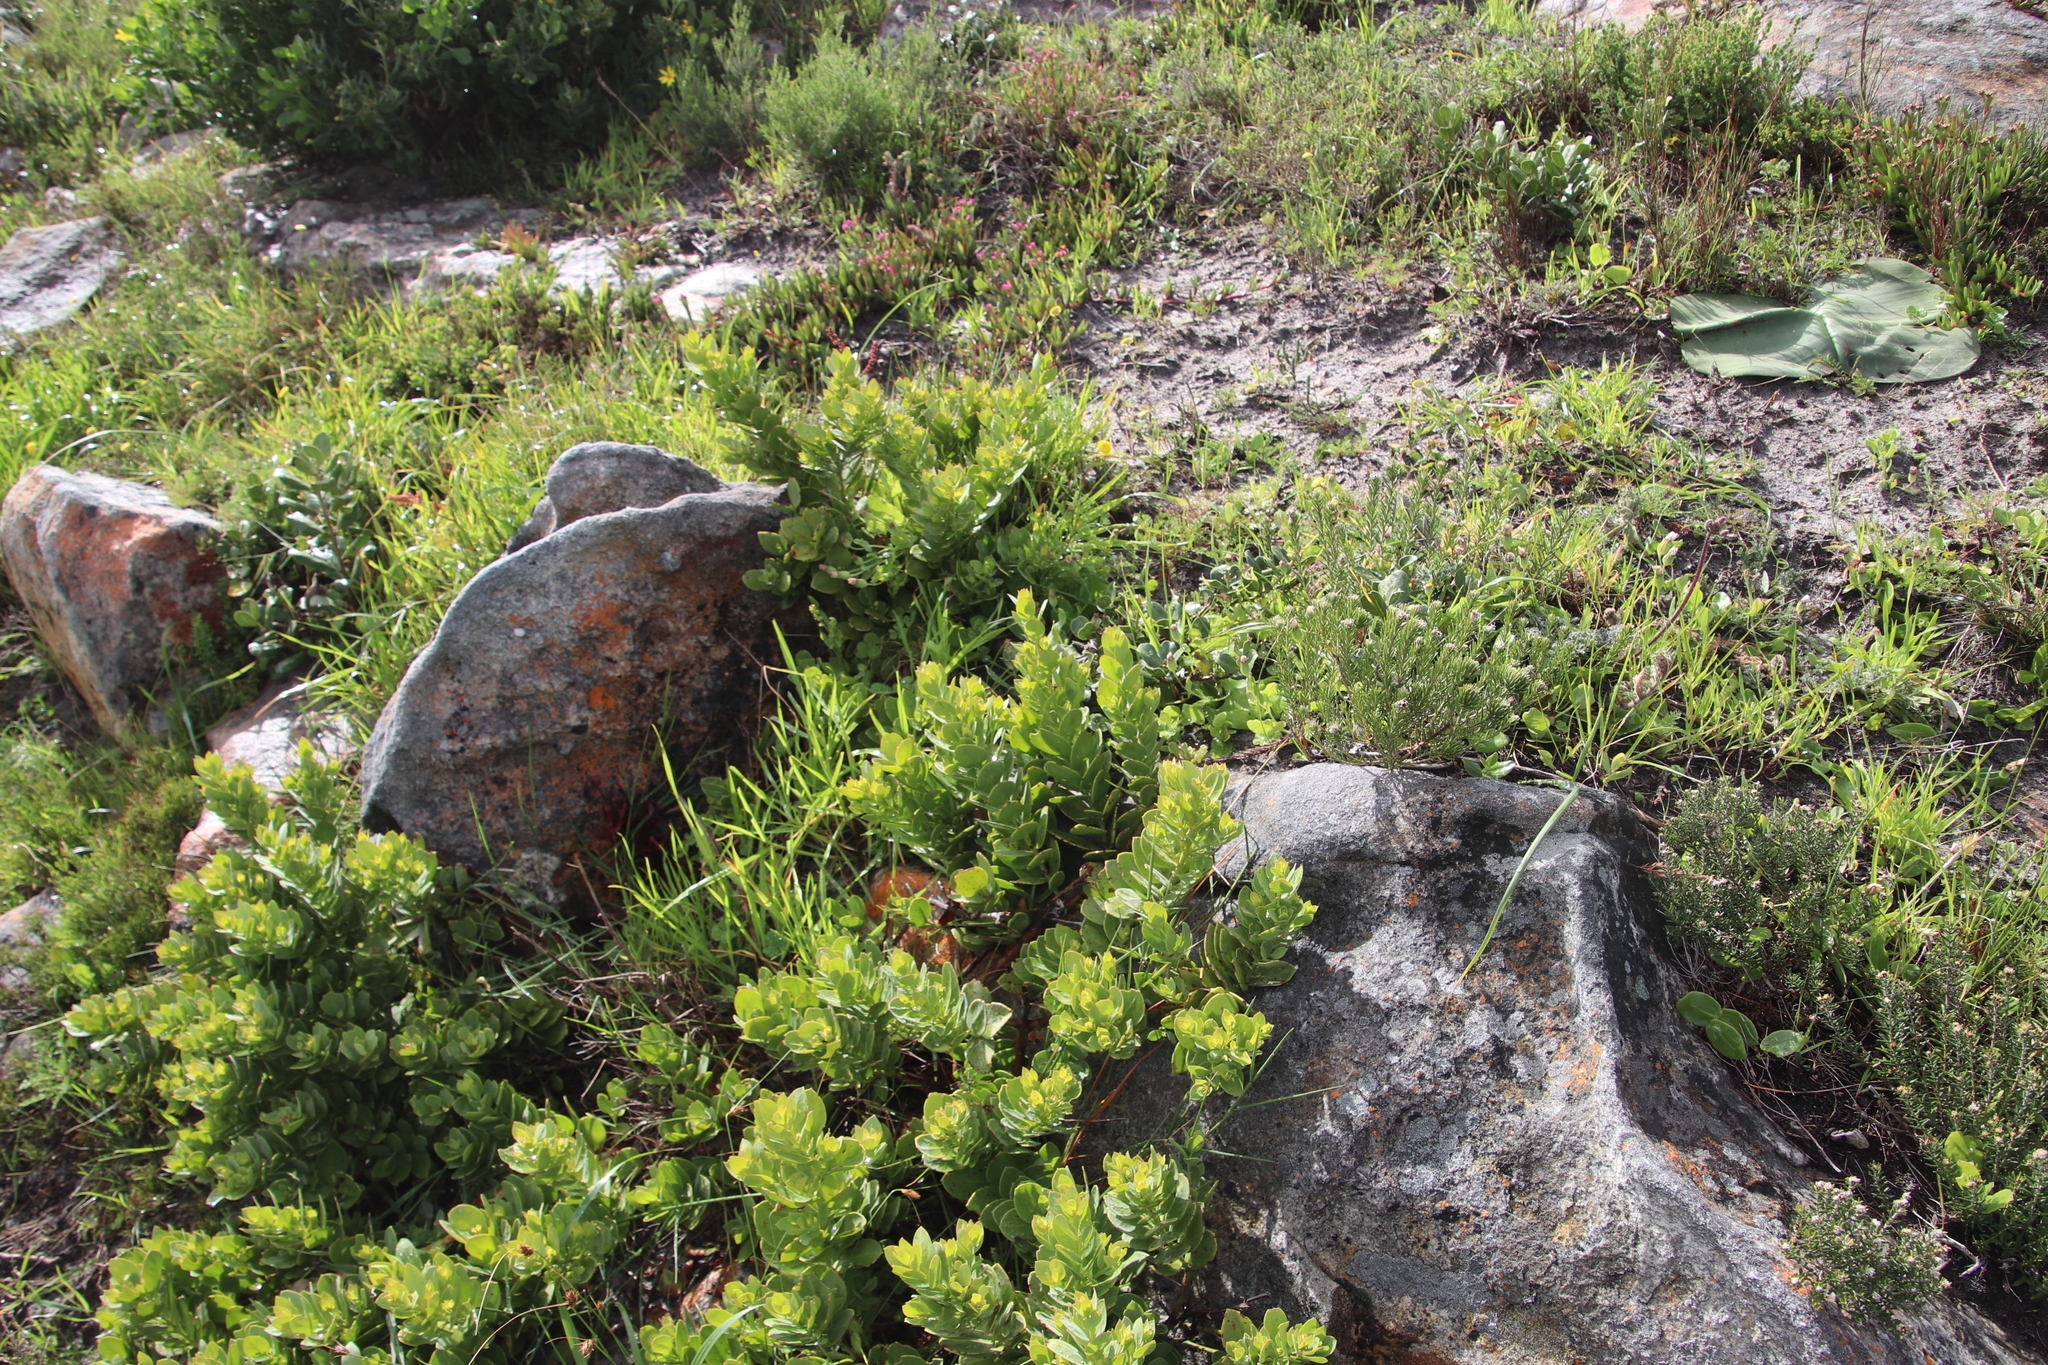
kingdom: Plantae
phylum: Tracheophyta
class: Magnoliopsida
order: Santalales
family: Santalaceae
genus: Osyris
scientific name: Osyris compressa
